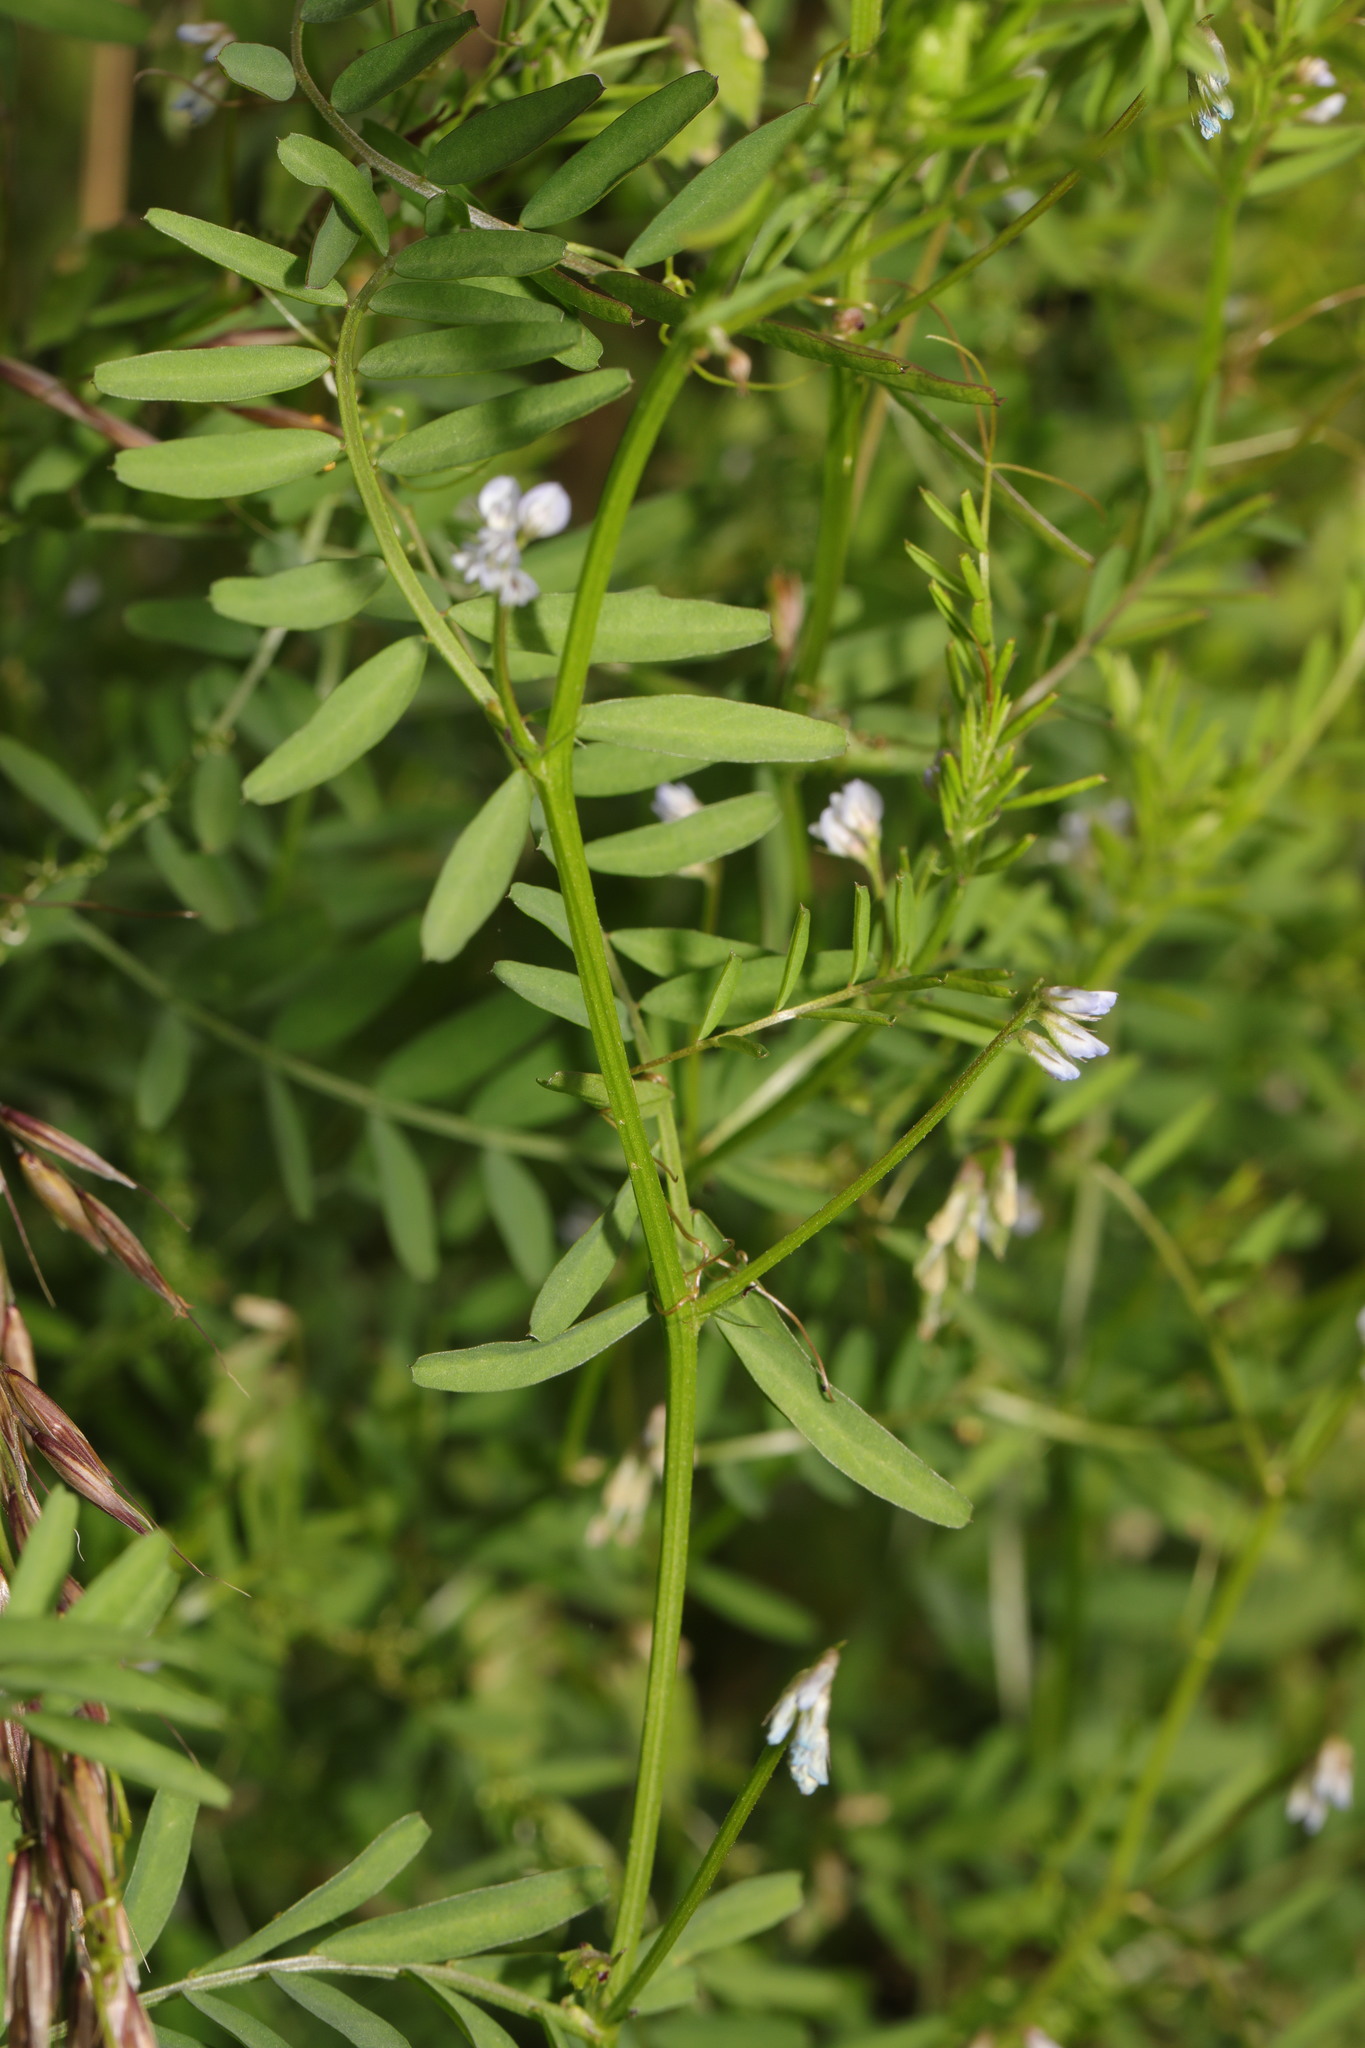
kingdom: Plantae
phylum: Tracheophyta
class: Magnoliopsida
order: Fabales
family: Fabaceae
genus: Vicia
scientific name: Vicia hirsuta
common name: Tiny vetch
